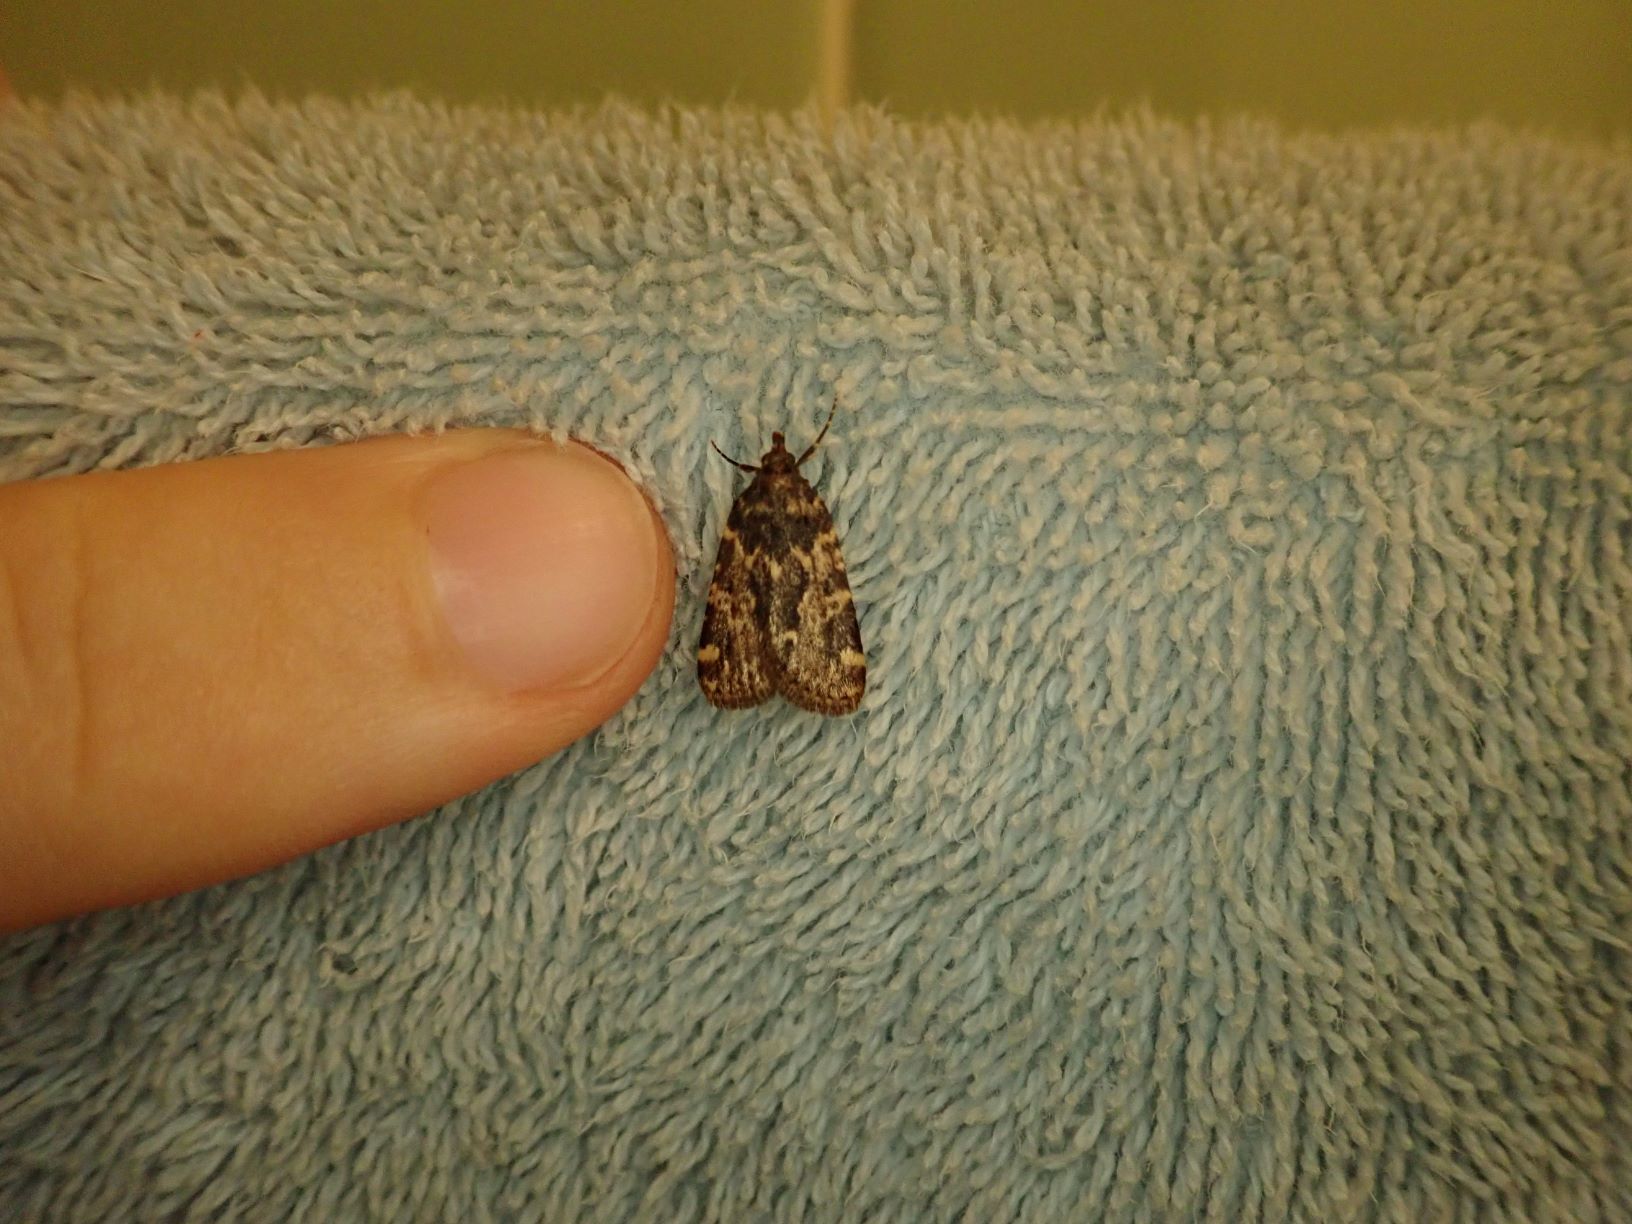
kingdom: Animalia
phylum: Arthropoda
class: Insecta
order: Lepidoptera
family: Pyralidae
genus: Aglossa
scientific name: Aglossa caprealis
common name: Small tabby
